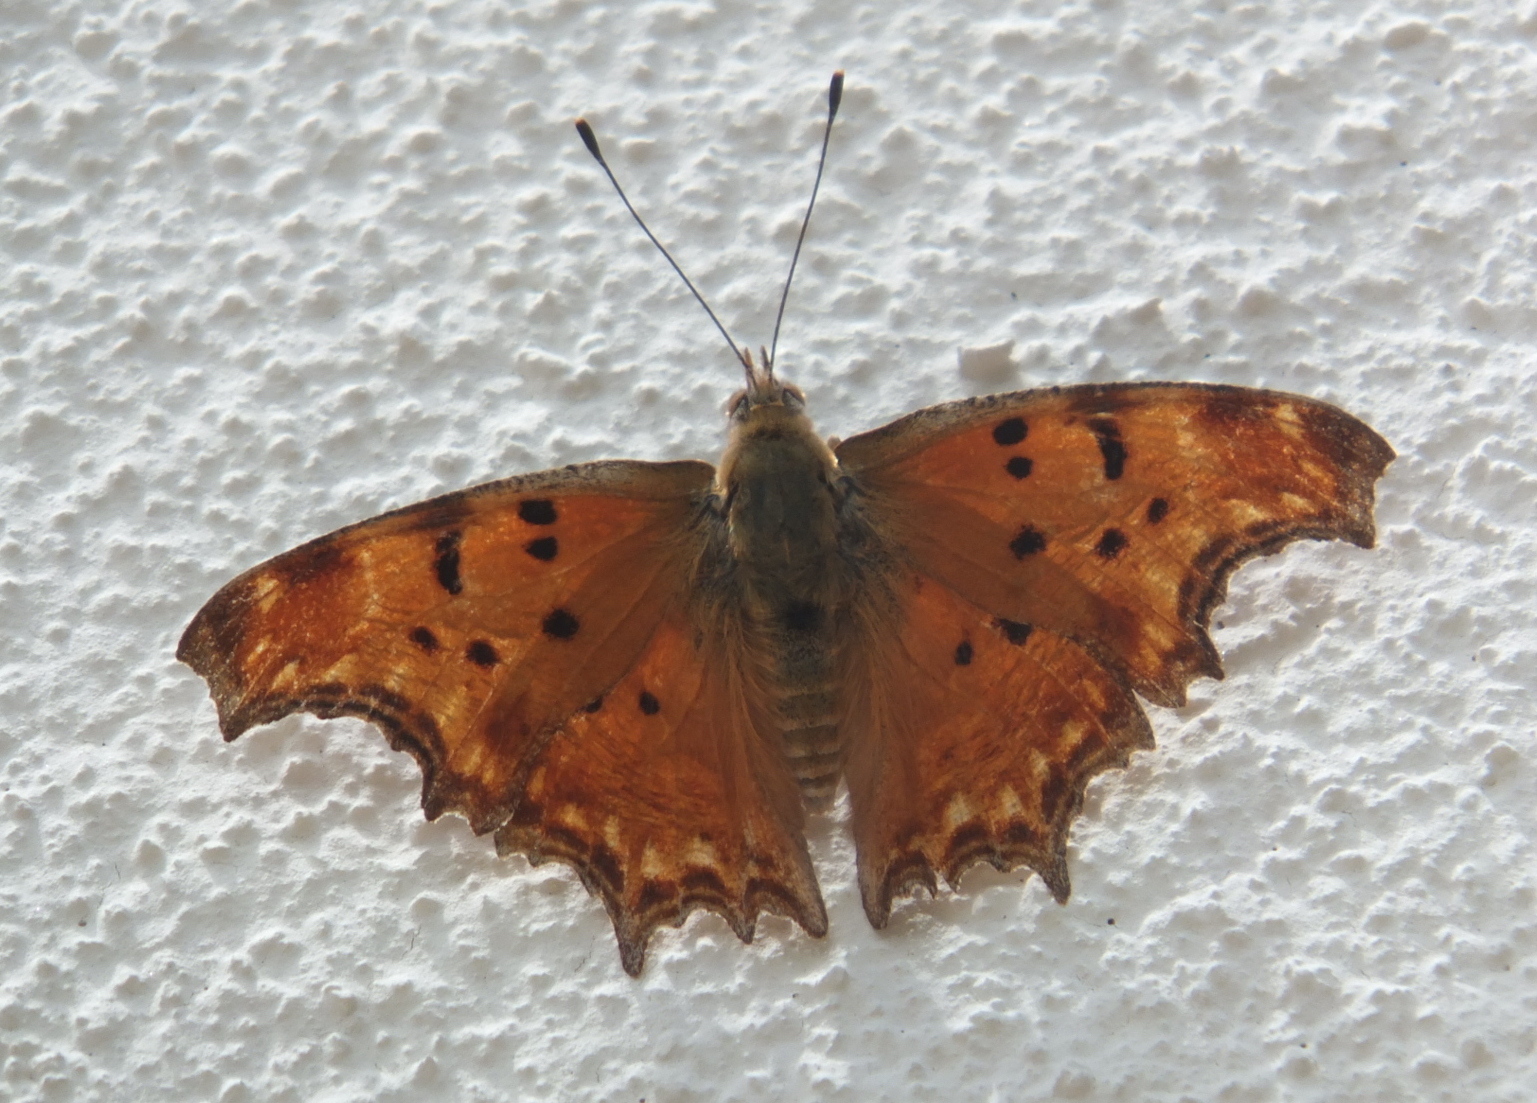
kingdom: Animalia
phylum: Arthropoda
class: Insecta
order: Lepidoptera
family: Nymphalidae
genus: Polygonia
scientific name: Polygonia egea
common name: Southern comma
